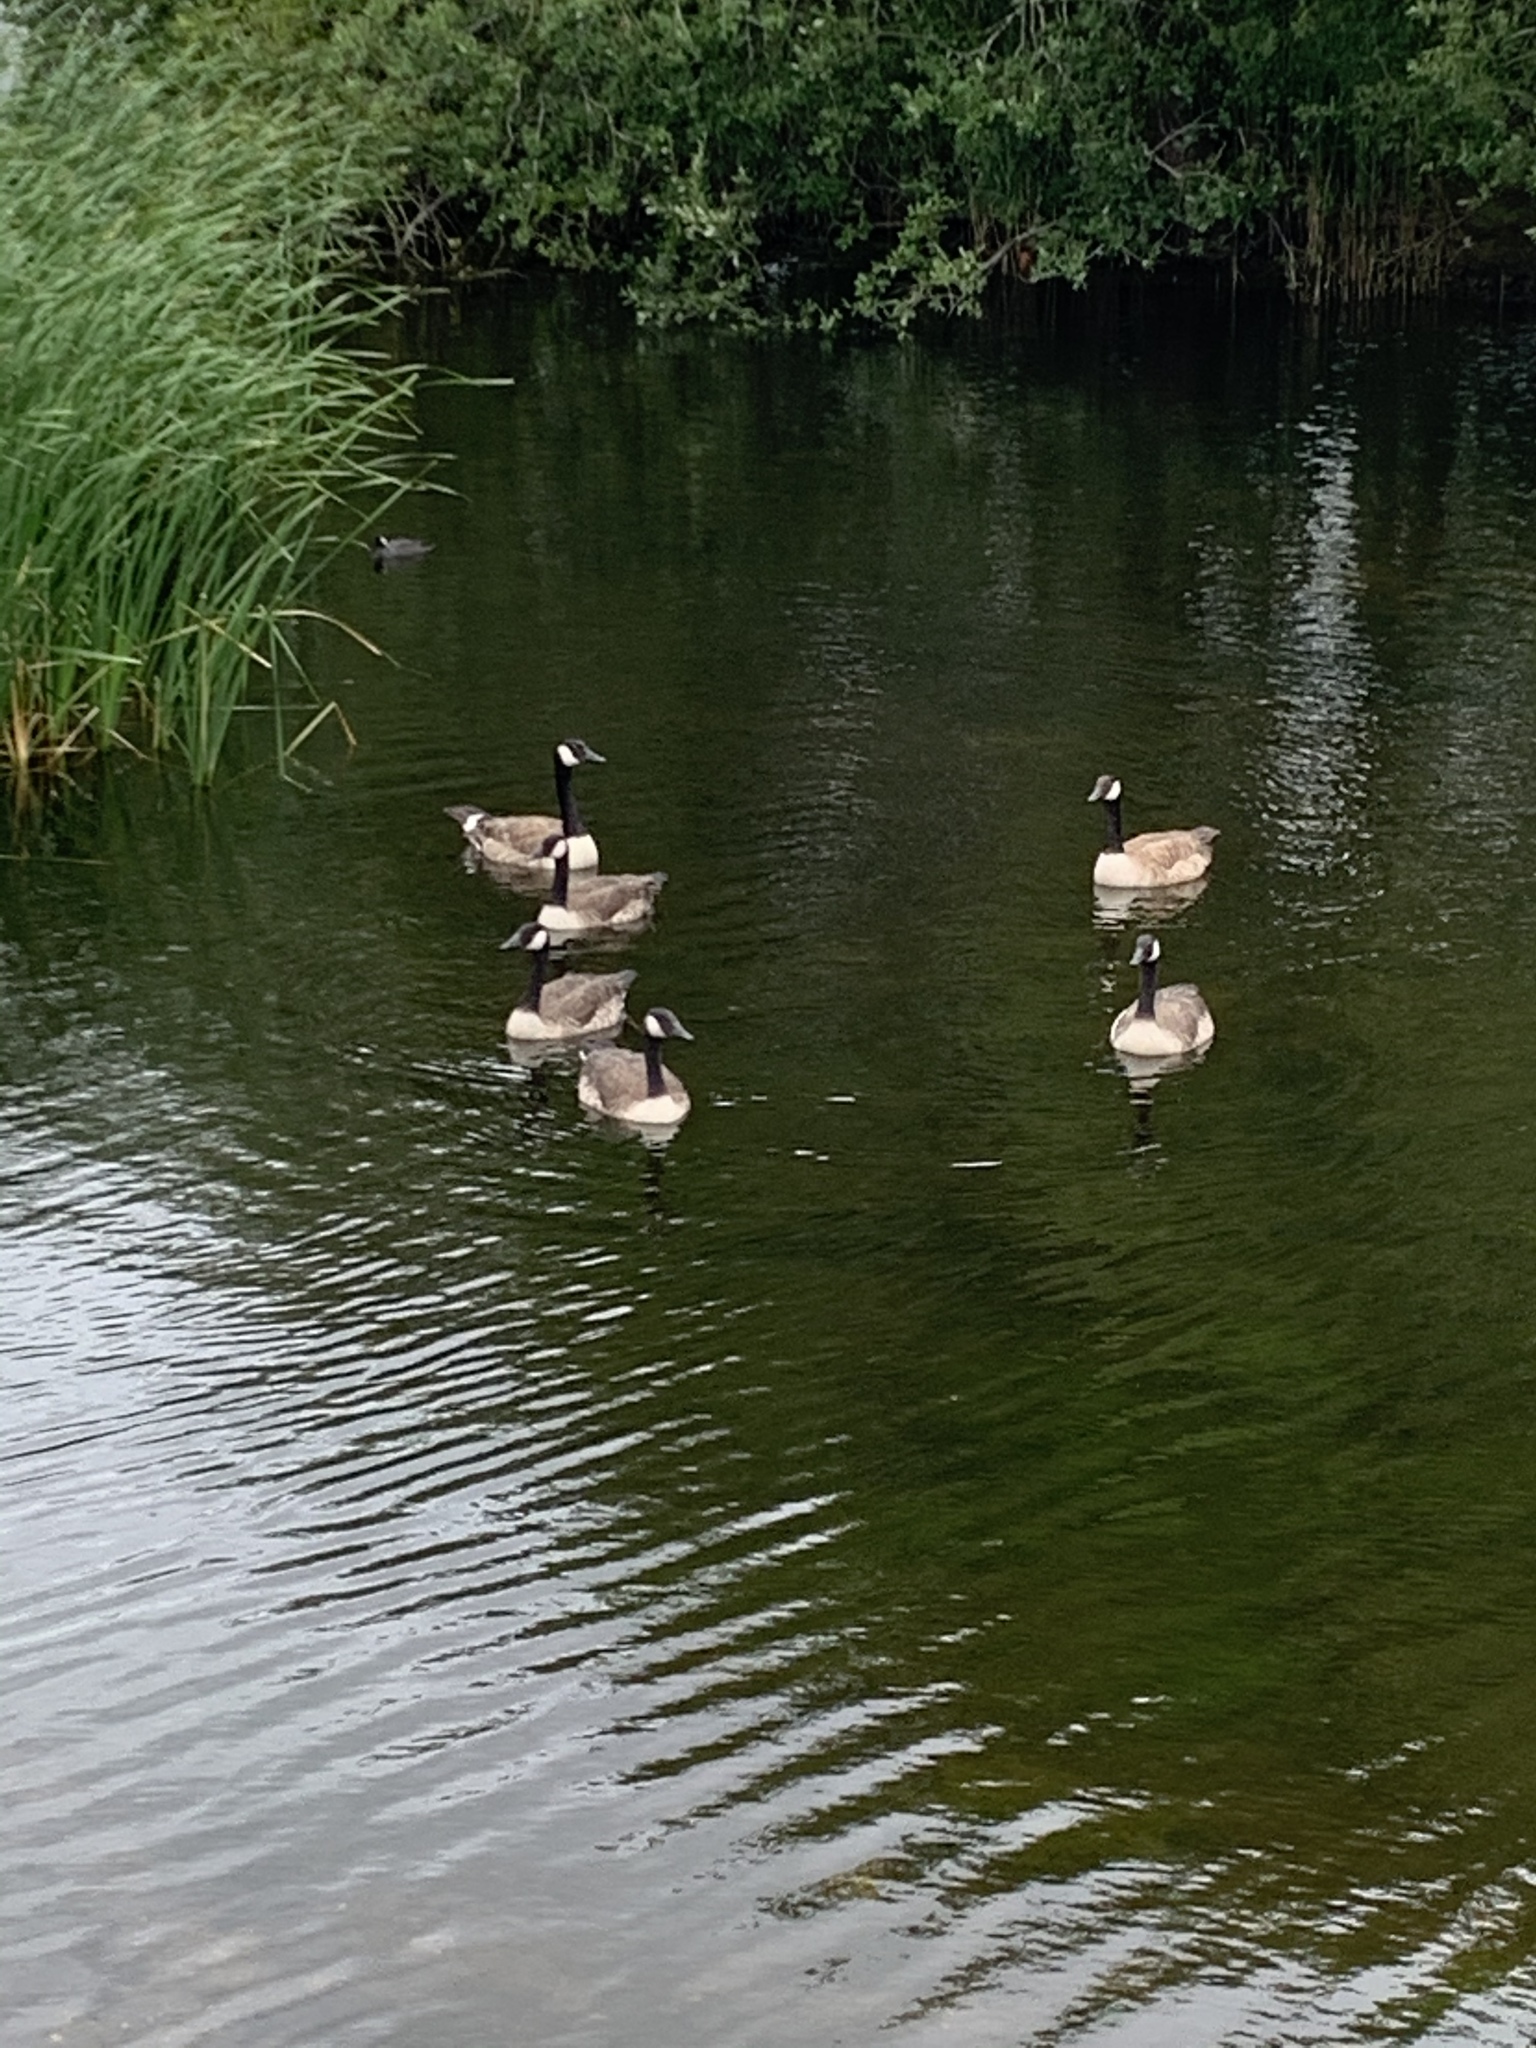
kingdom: Animalia
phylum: Chordata
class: Aves
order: Anseriformes
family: Anatidae
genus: Branta
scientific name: Branta canadensis
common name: Canada goose
